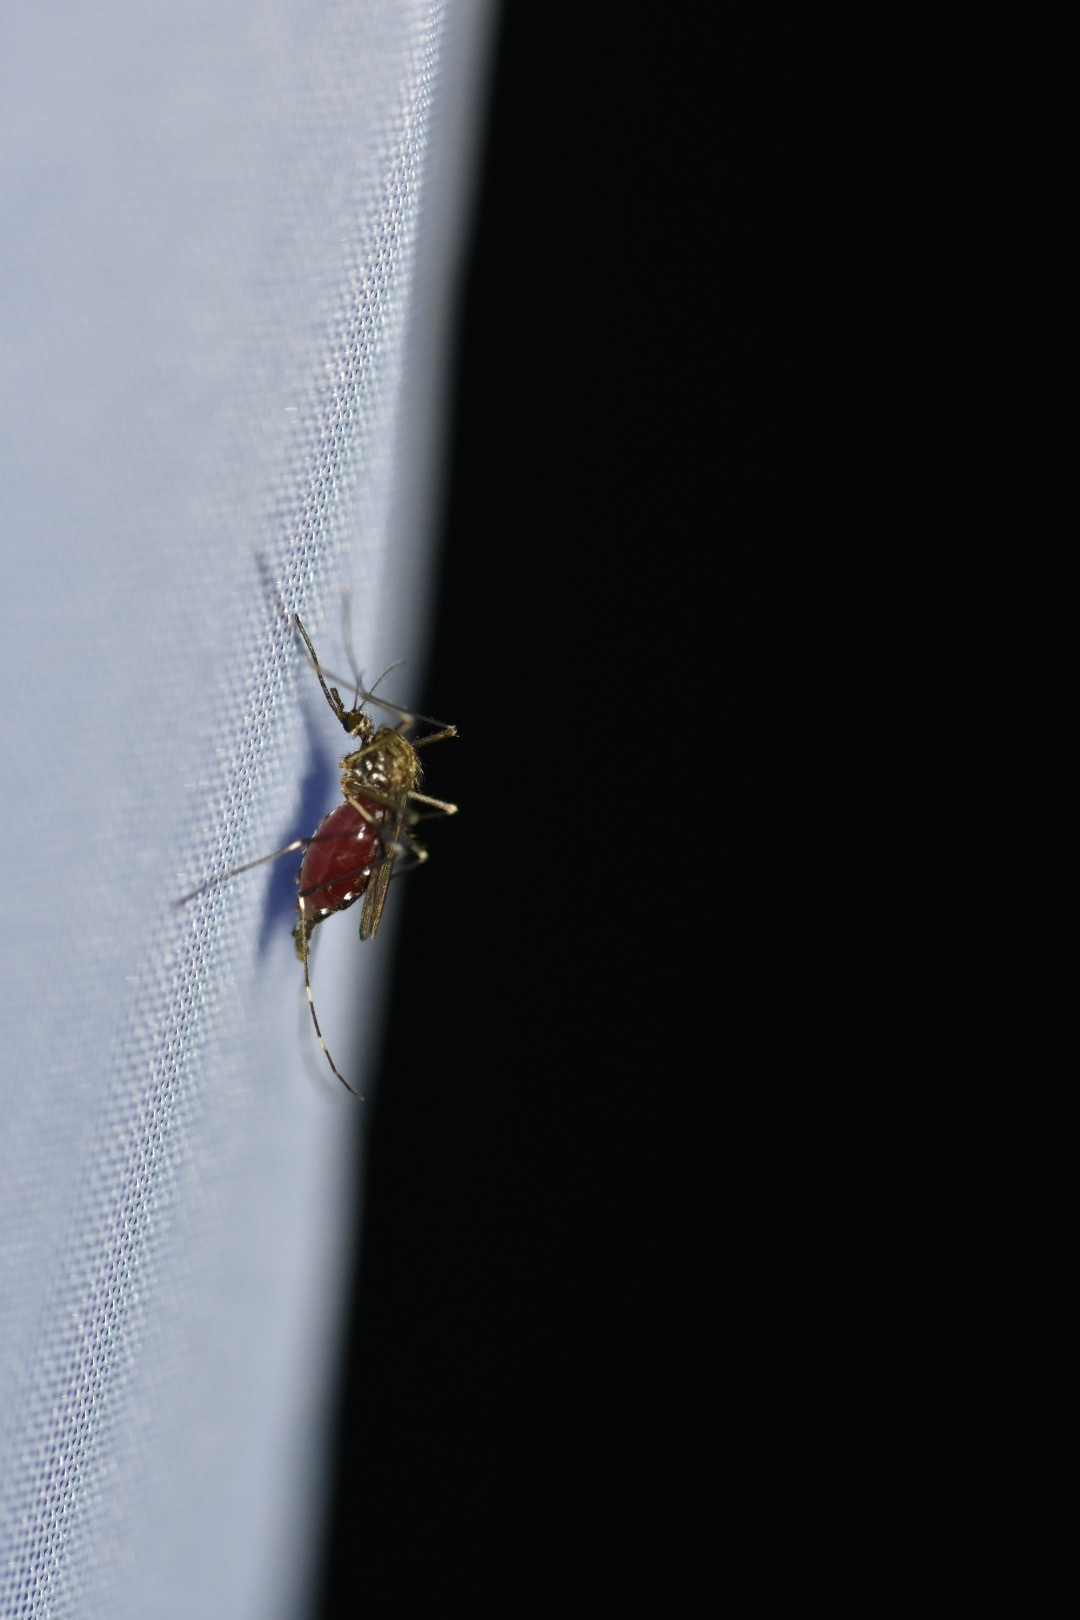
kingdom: Animalia
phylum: Arthropoda
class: Insecta
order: Diptera
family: Culicidae
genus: Aedes
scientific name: Aedes japonicus
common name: Asian bush mosquito
